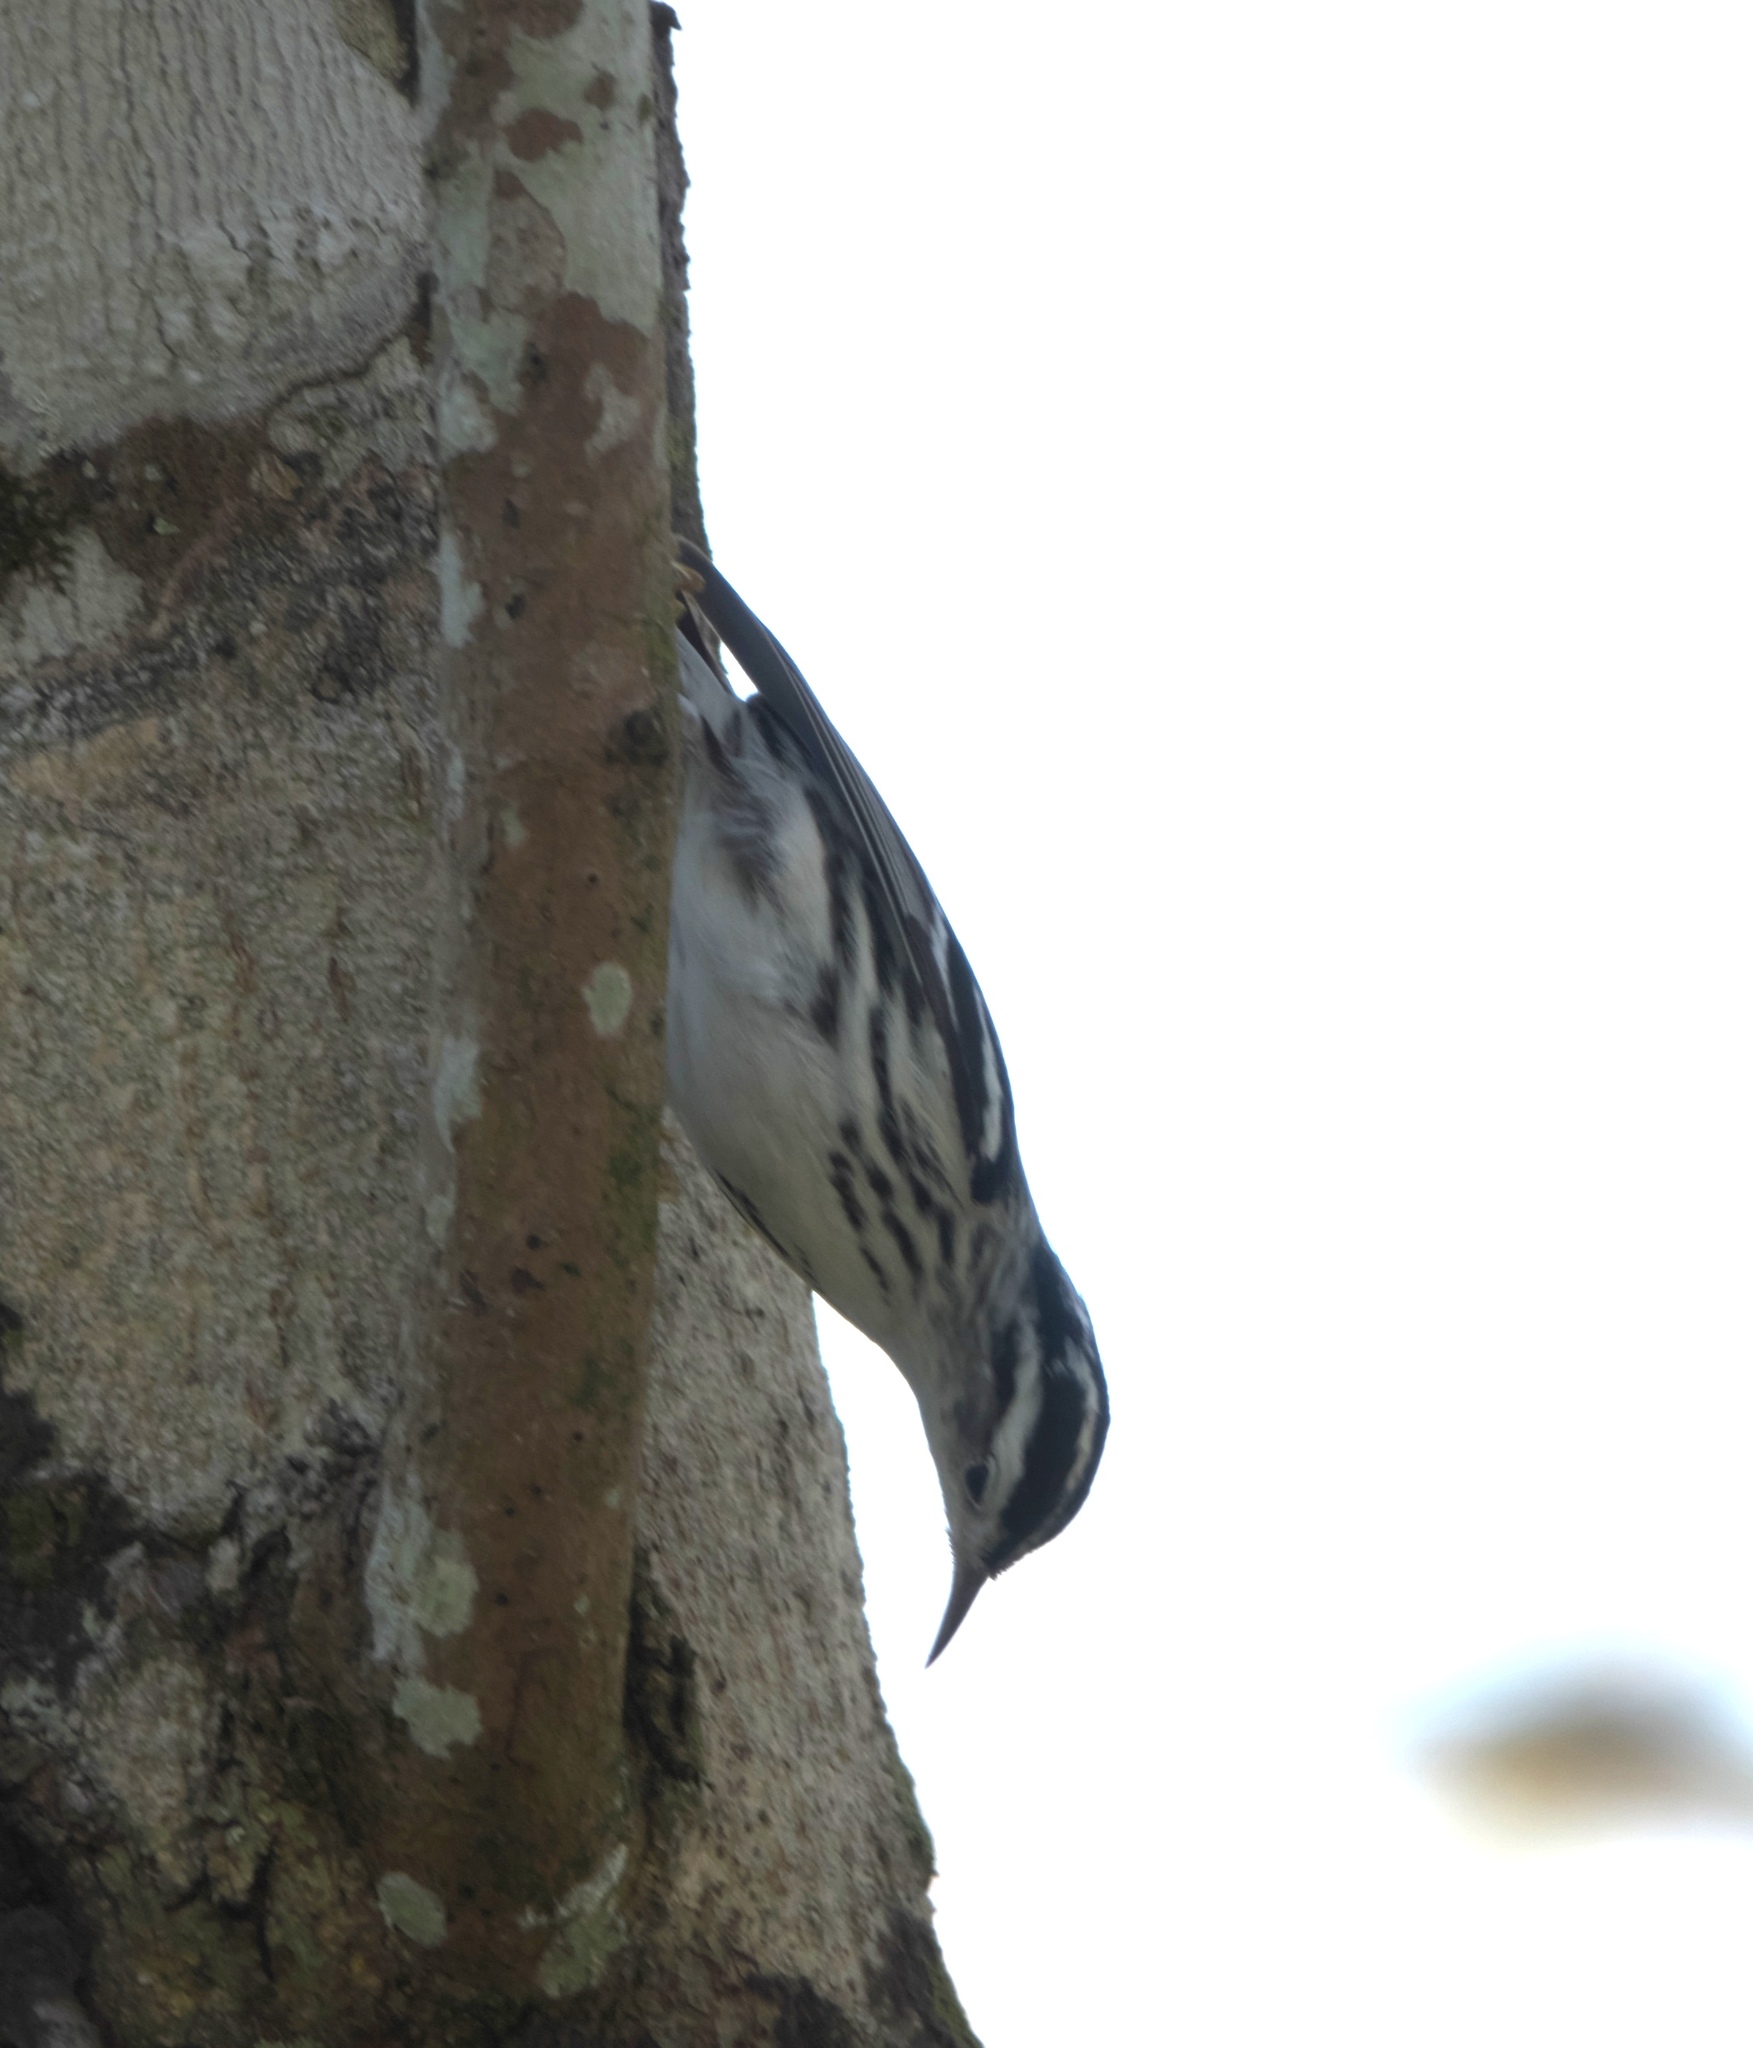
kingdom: Animalia
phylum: Chordata
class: Aves
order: Passeriformes
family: Parulidae
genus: Mniotilta
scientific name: Mniotilta varia
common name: Black-and-white warbler
